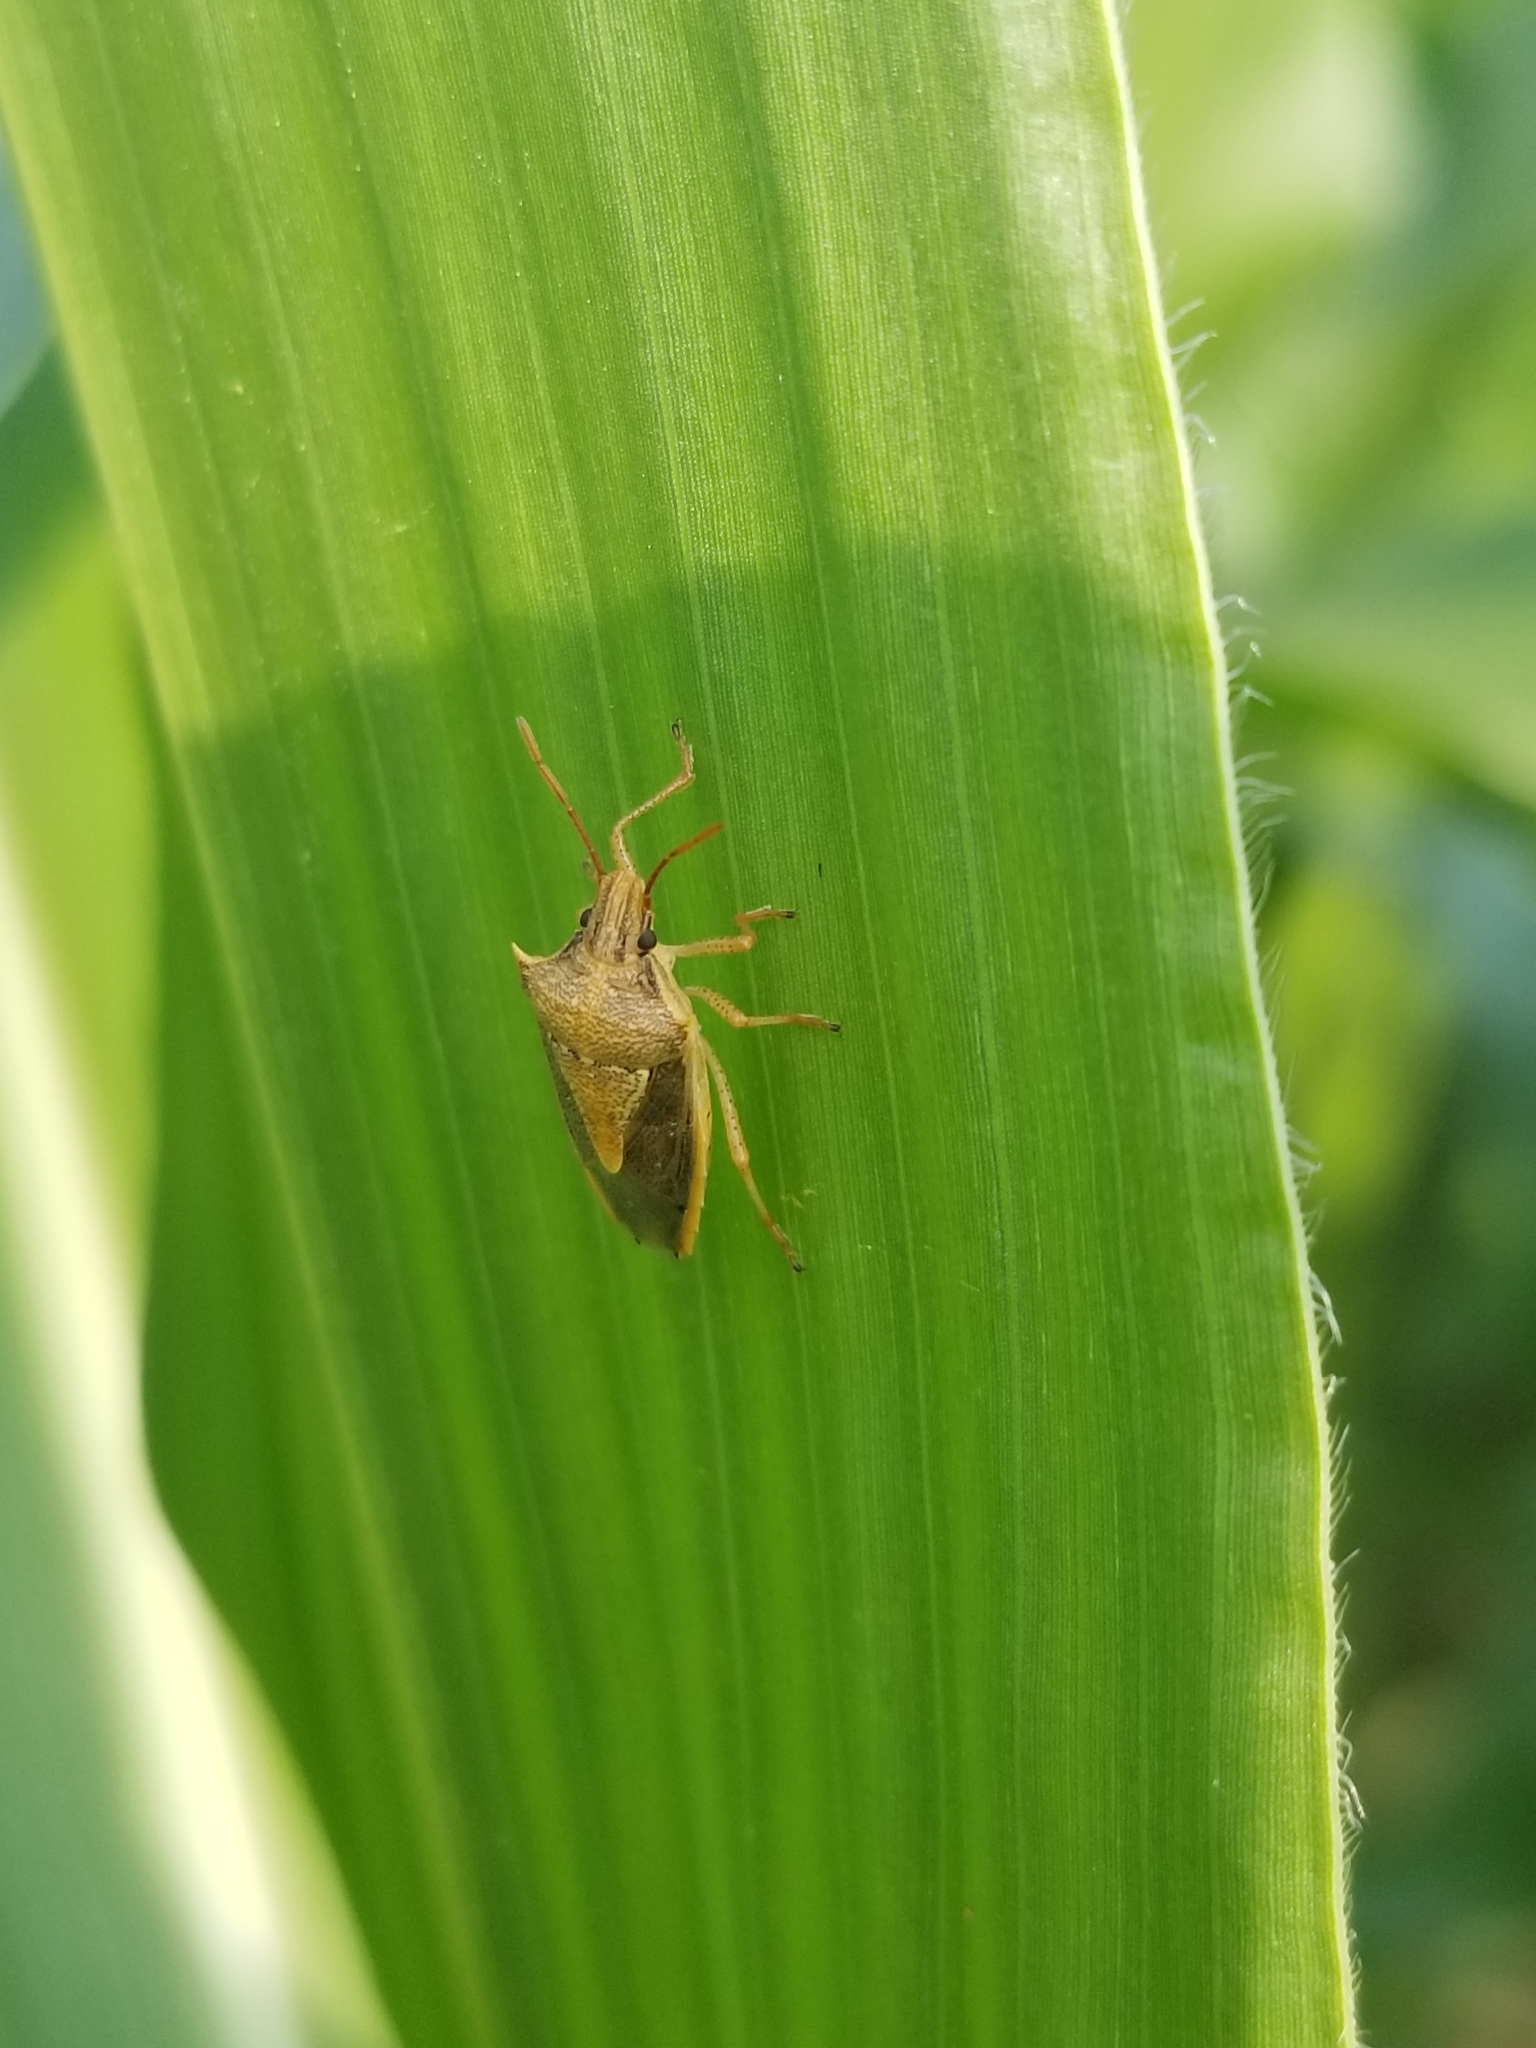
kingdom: Animalia
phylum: Arthropoda
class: Insecta
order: Hemiptera
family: Pentatomidae
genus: Oebalus
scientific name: Oebalus pugnax
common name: Rice stink bug
